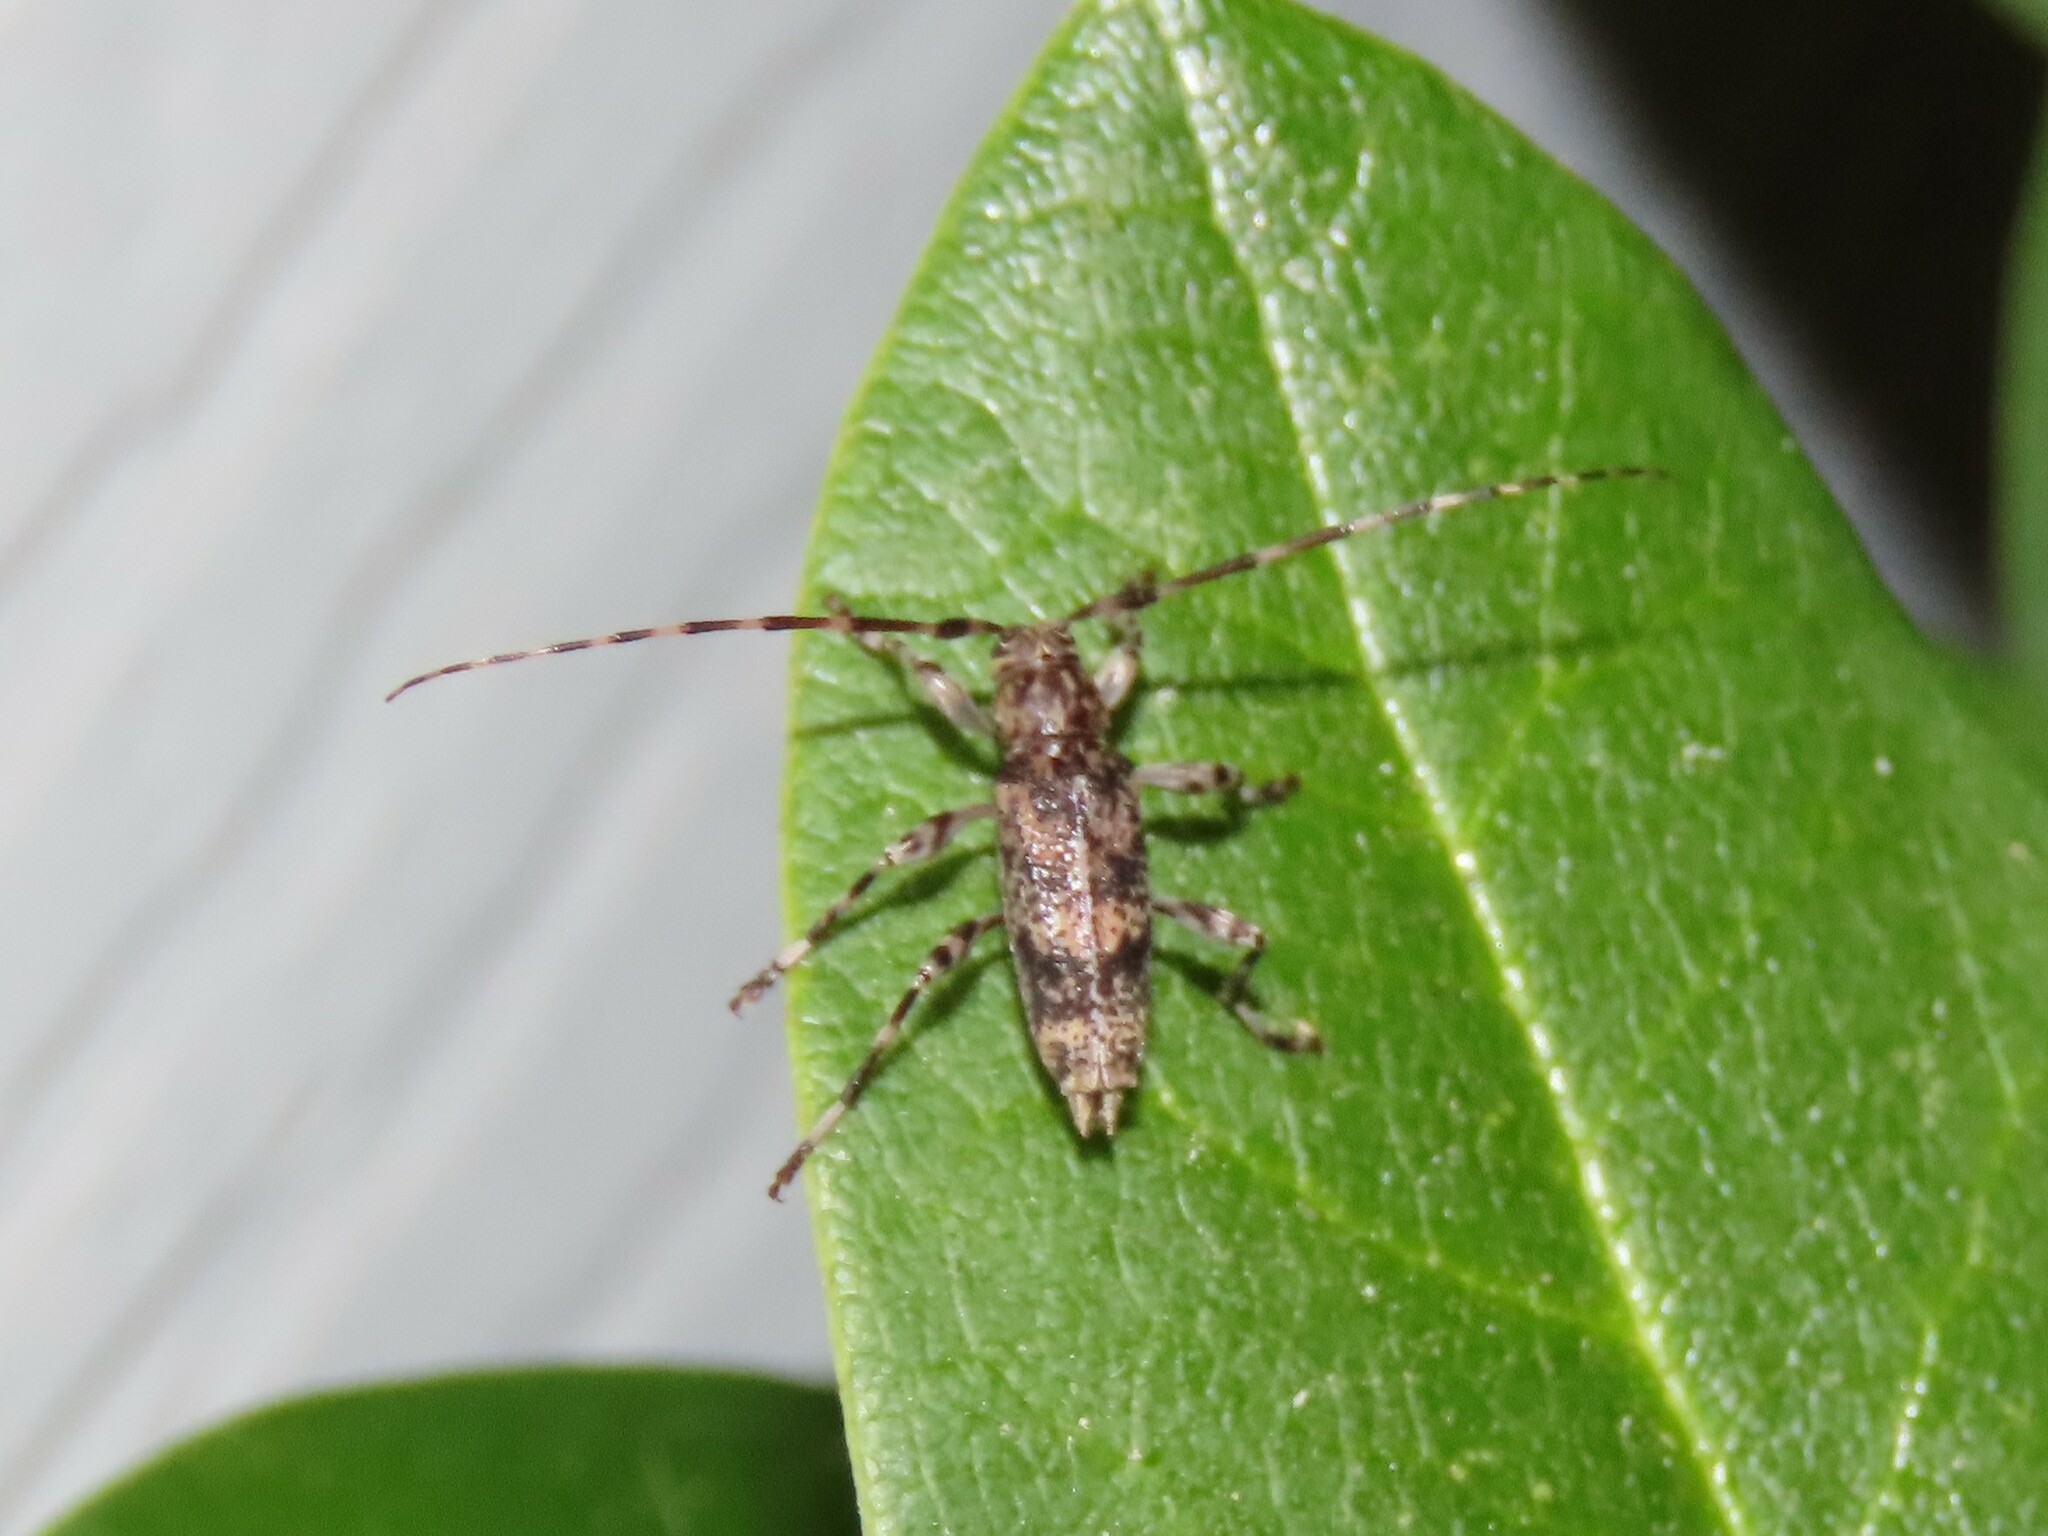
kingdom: Animalia
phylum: Arthropoda
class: Insecta
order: Coleoptera
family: Cerambycidae
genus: Graphisurus
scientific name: Graphisurus fasciatus
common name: Banded graphisurus
